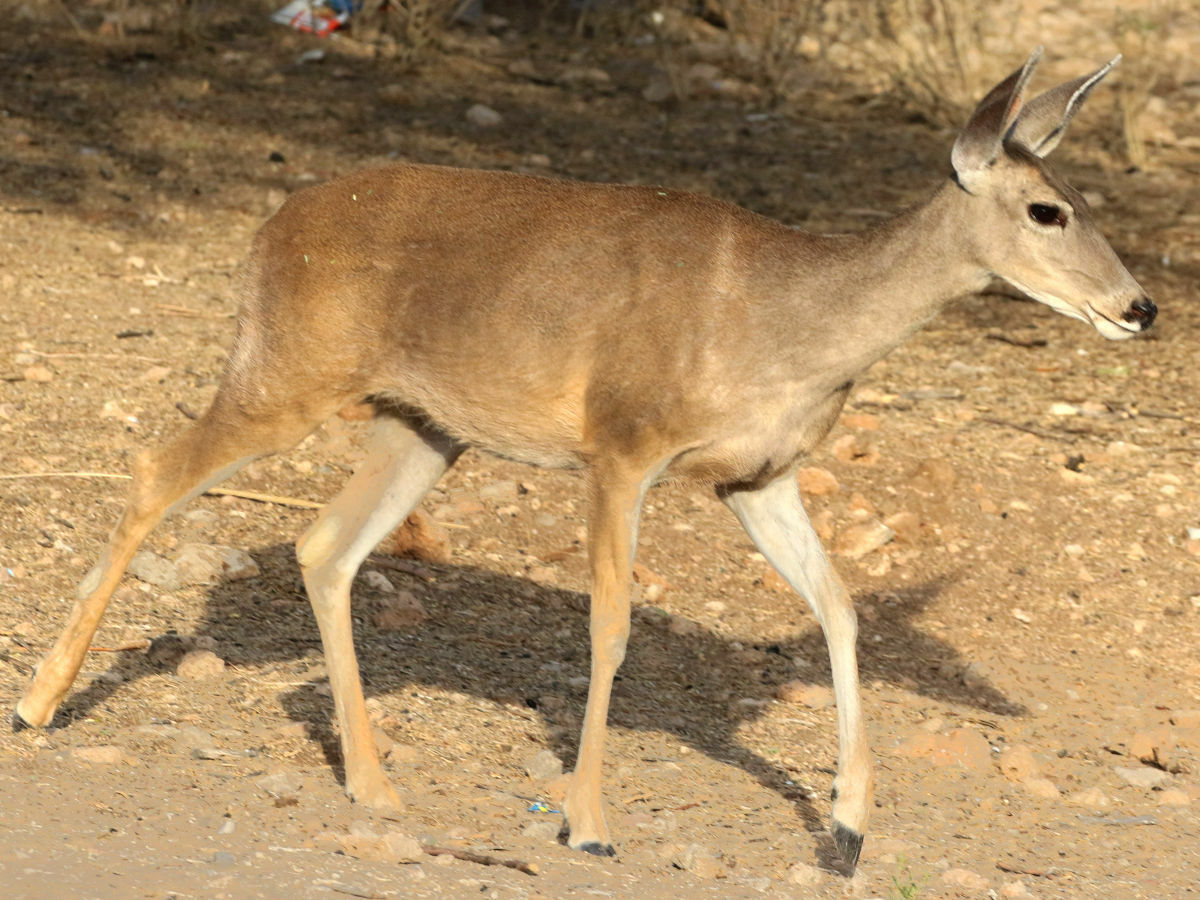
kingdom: Animalia
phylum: Chordata
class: Mammalia
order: Artiodactyla
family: Cervidae
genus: Odocoileus
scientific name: Odocoileus virginianus
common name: White-tailed deer
